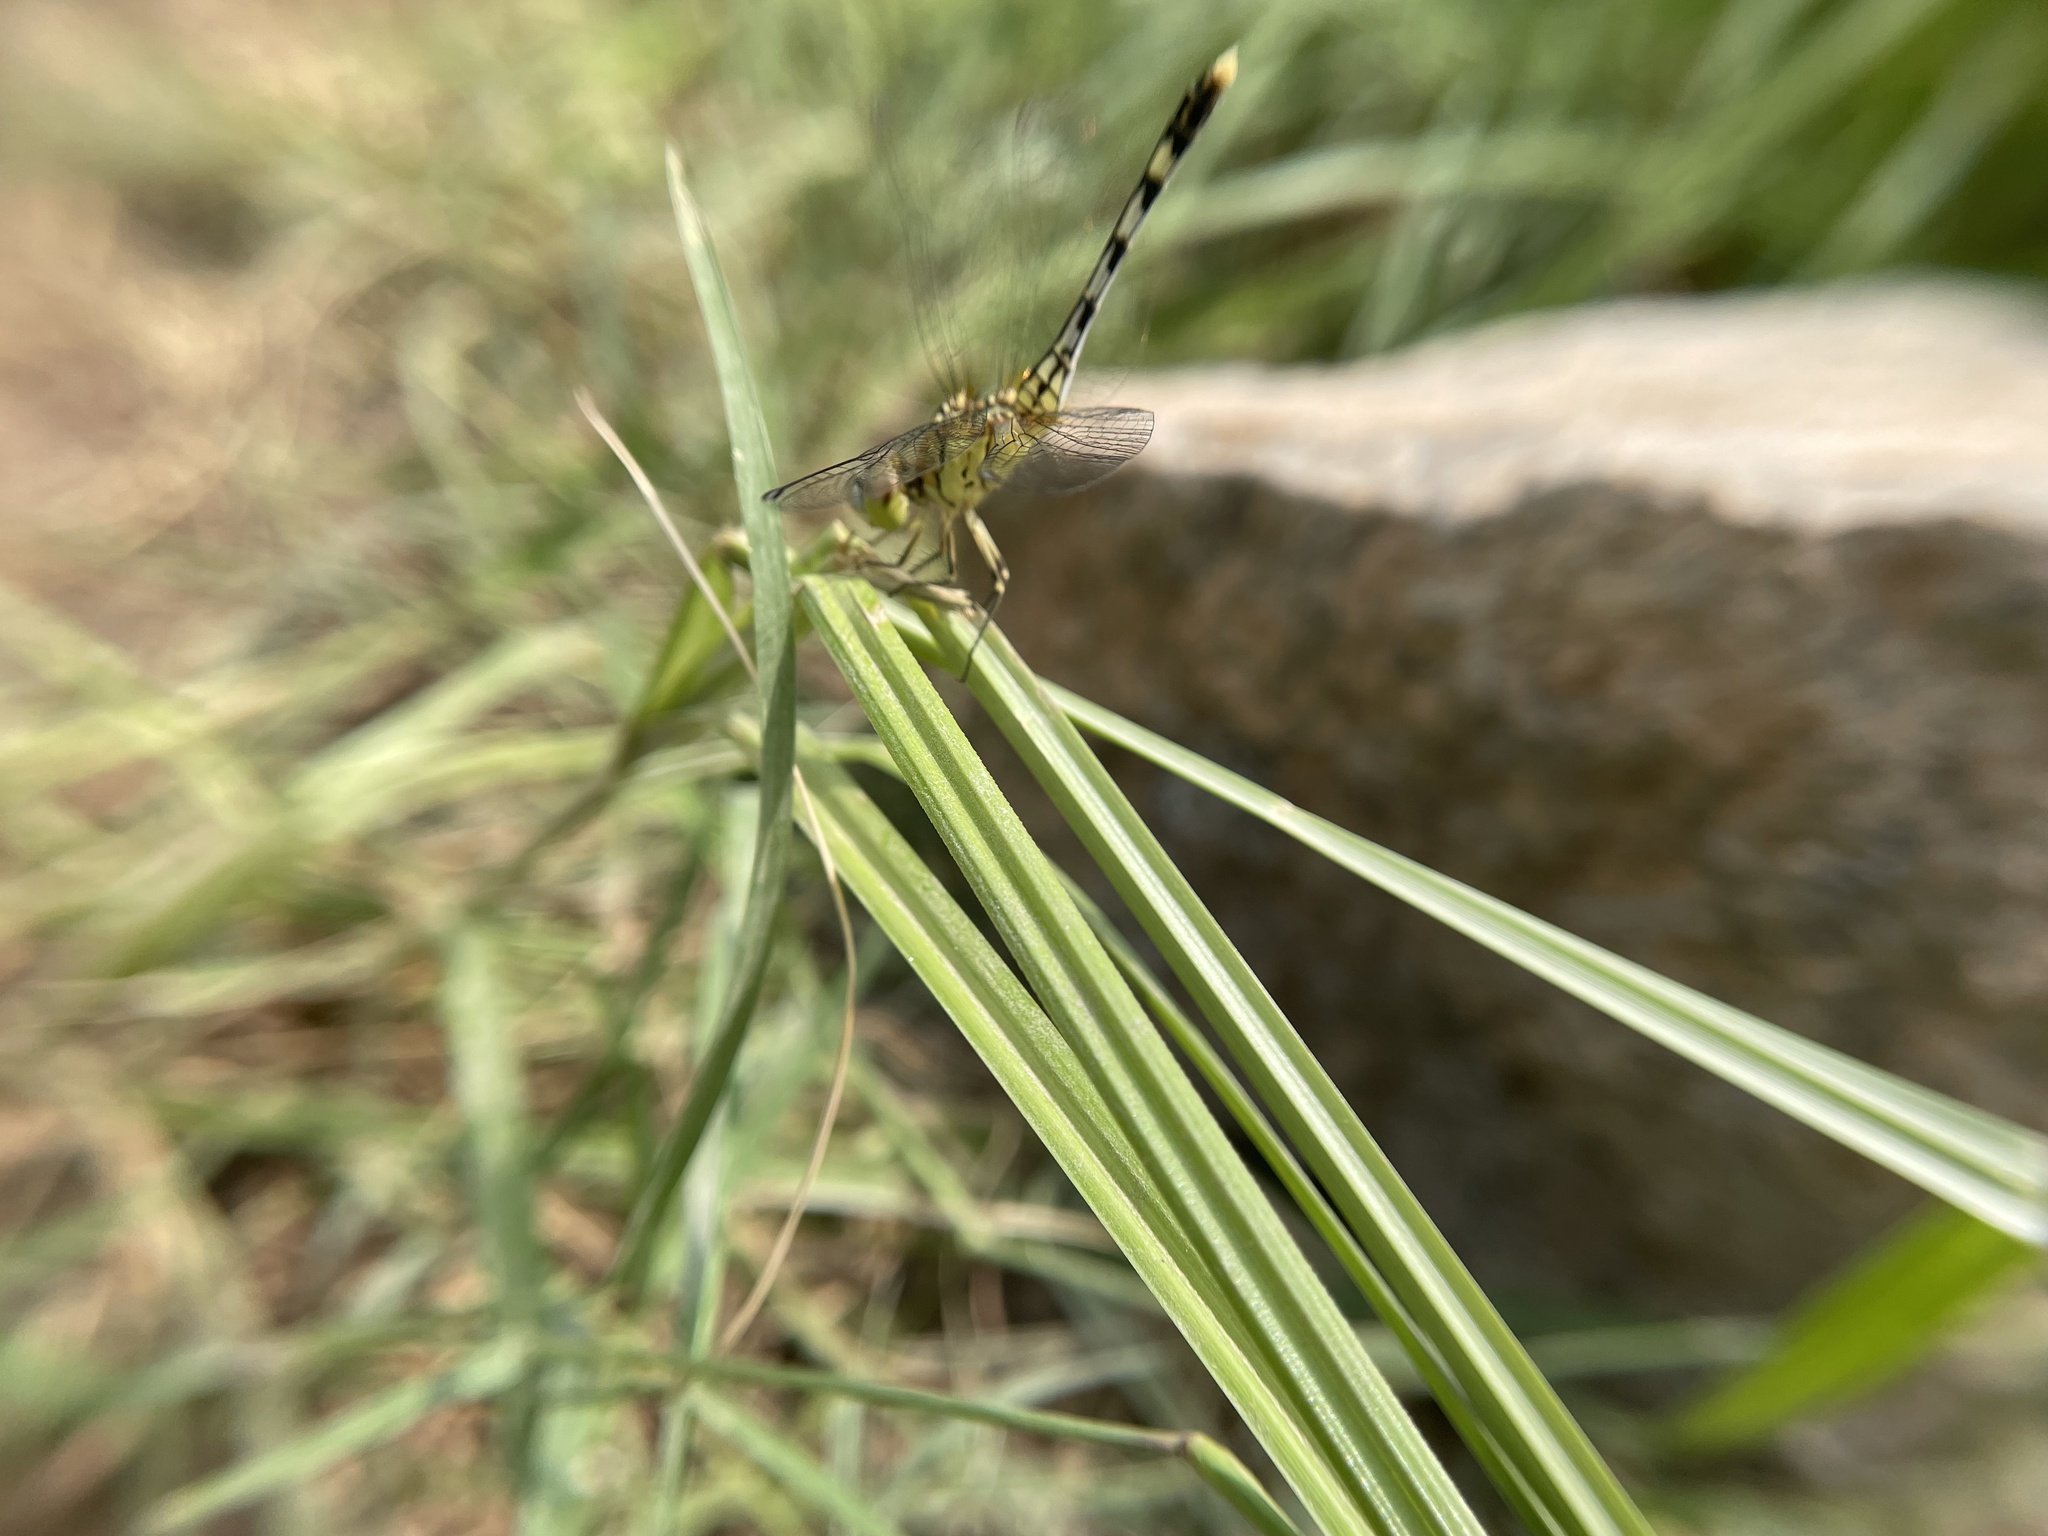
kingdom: Animalia
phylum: Arthropoda
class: Insecta
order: Odonata
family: Libellulidae
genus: Diplacodes
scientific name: Diplacodes trivialis
